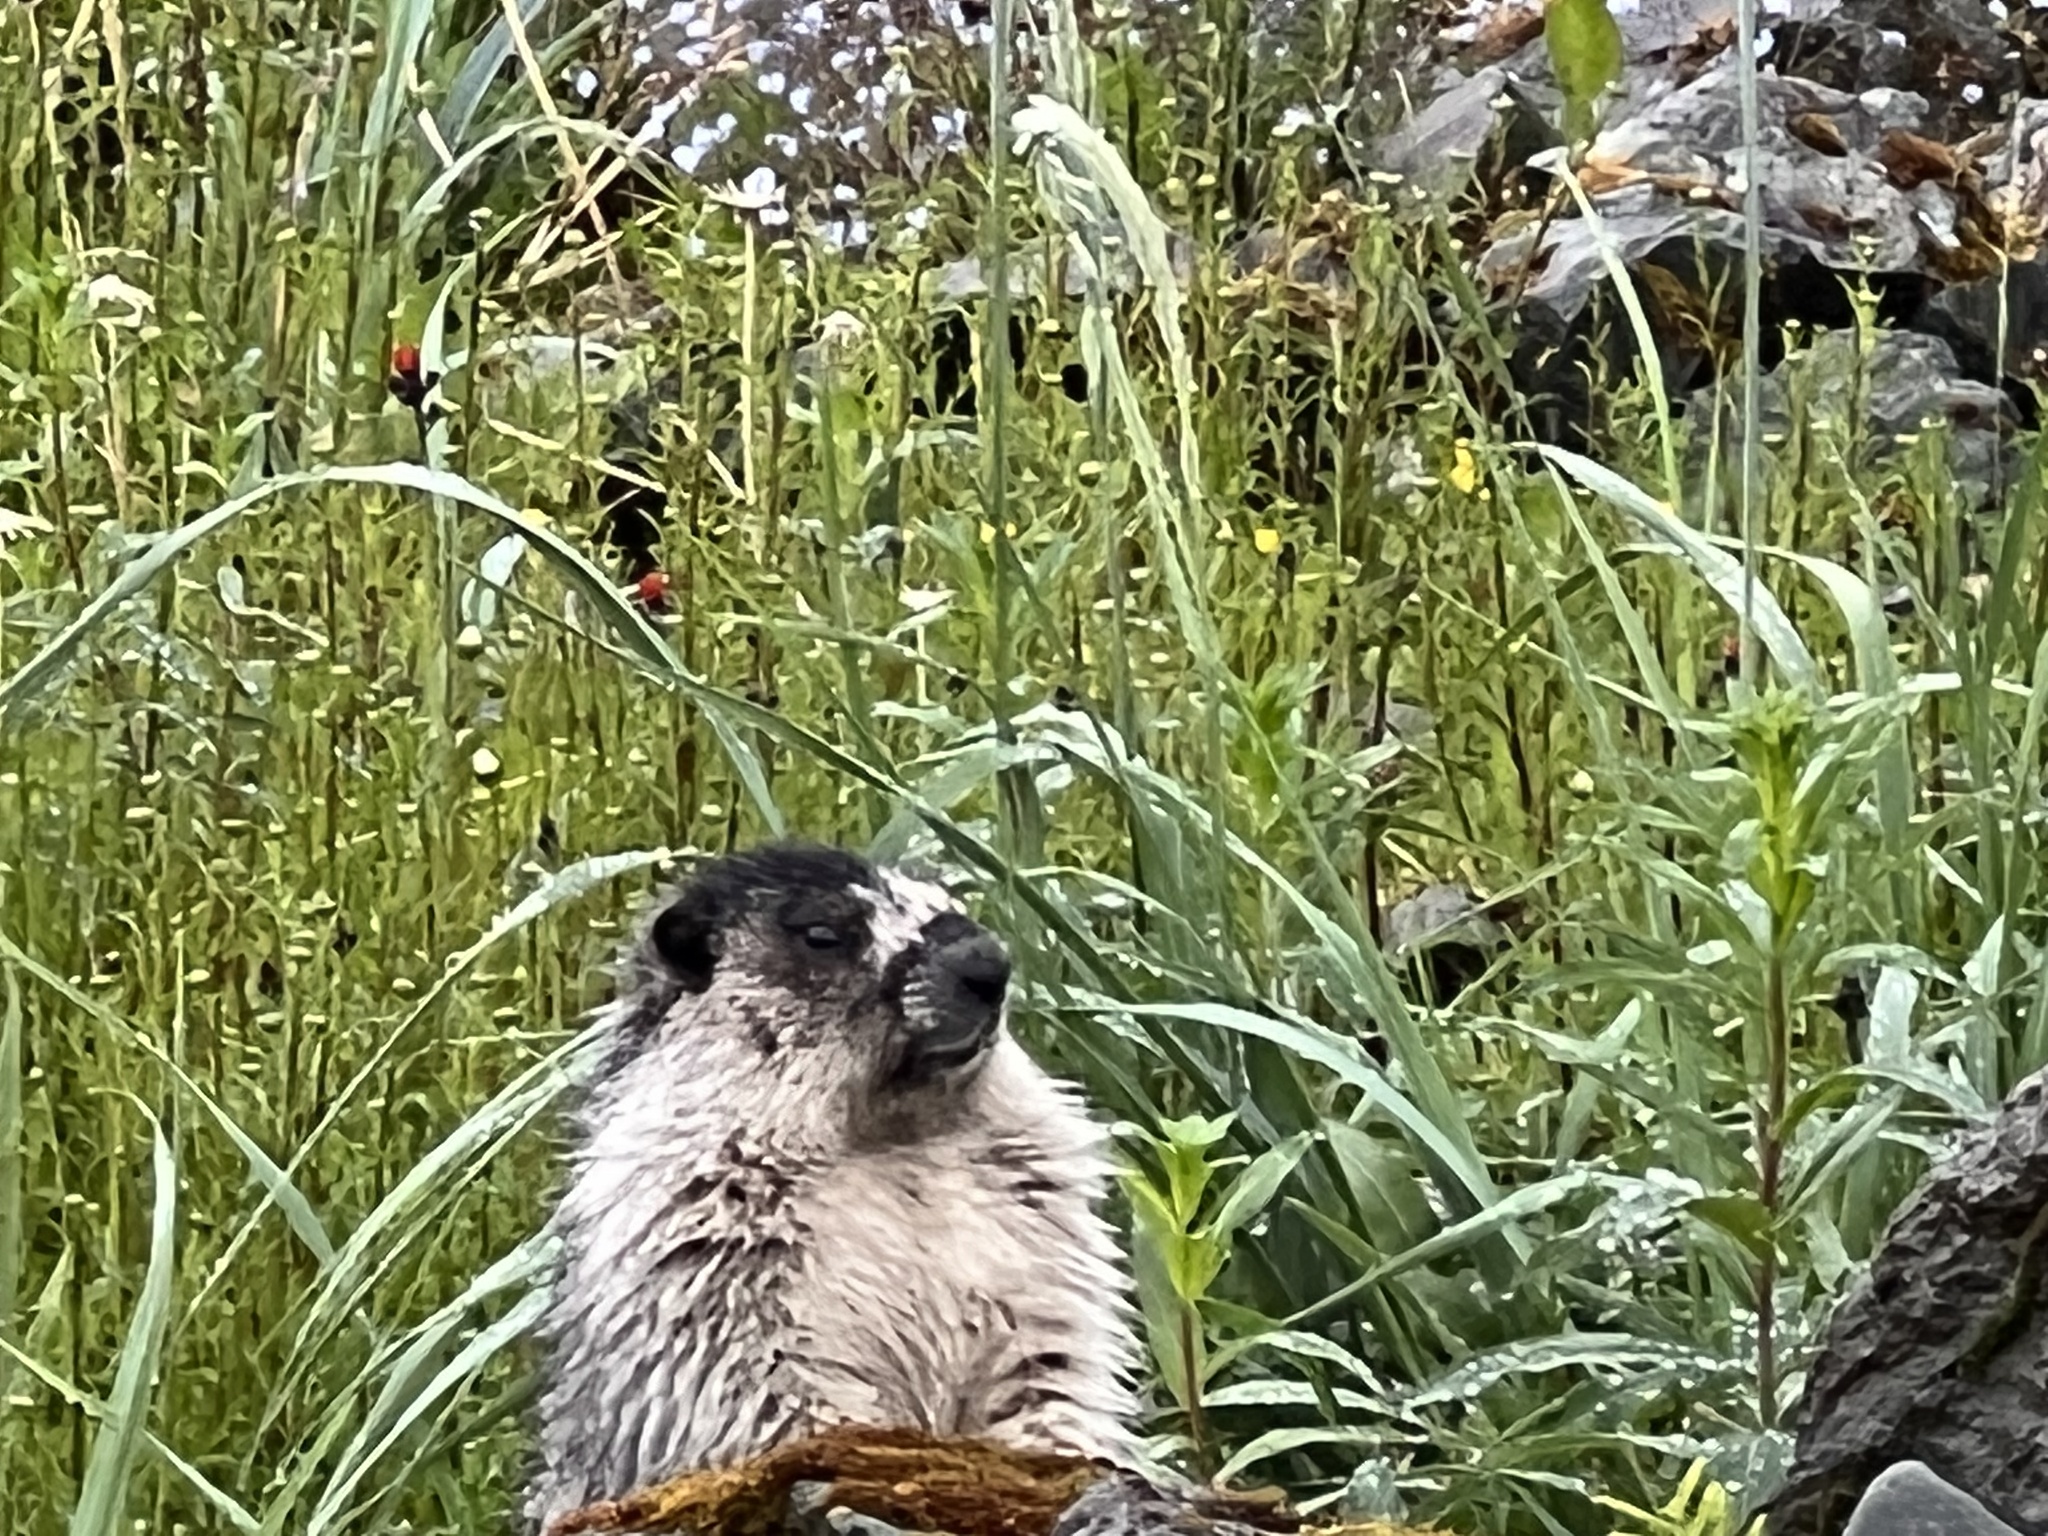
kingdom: Animalia
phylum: Chordata
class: Mammalia
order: Rodentia
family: Sciuridae
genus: Marmota
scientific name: Marmota caligata
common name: Hoary marmot
